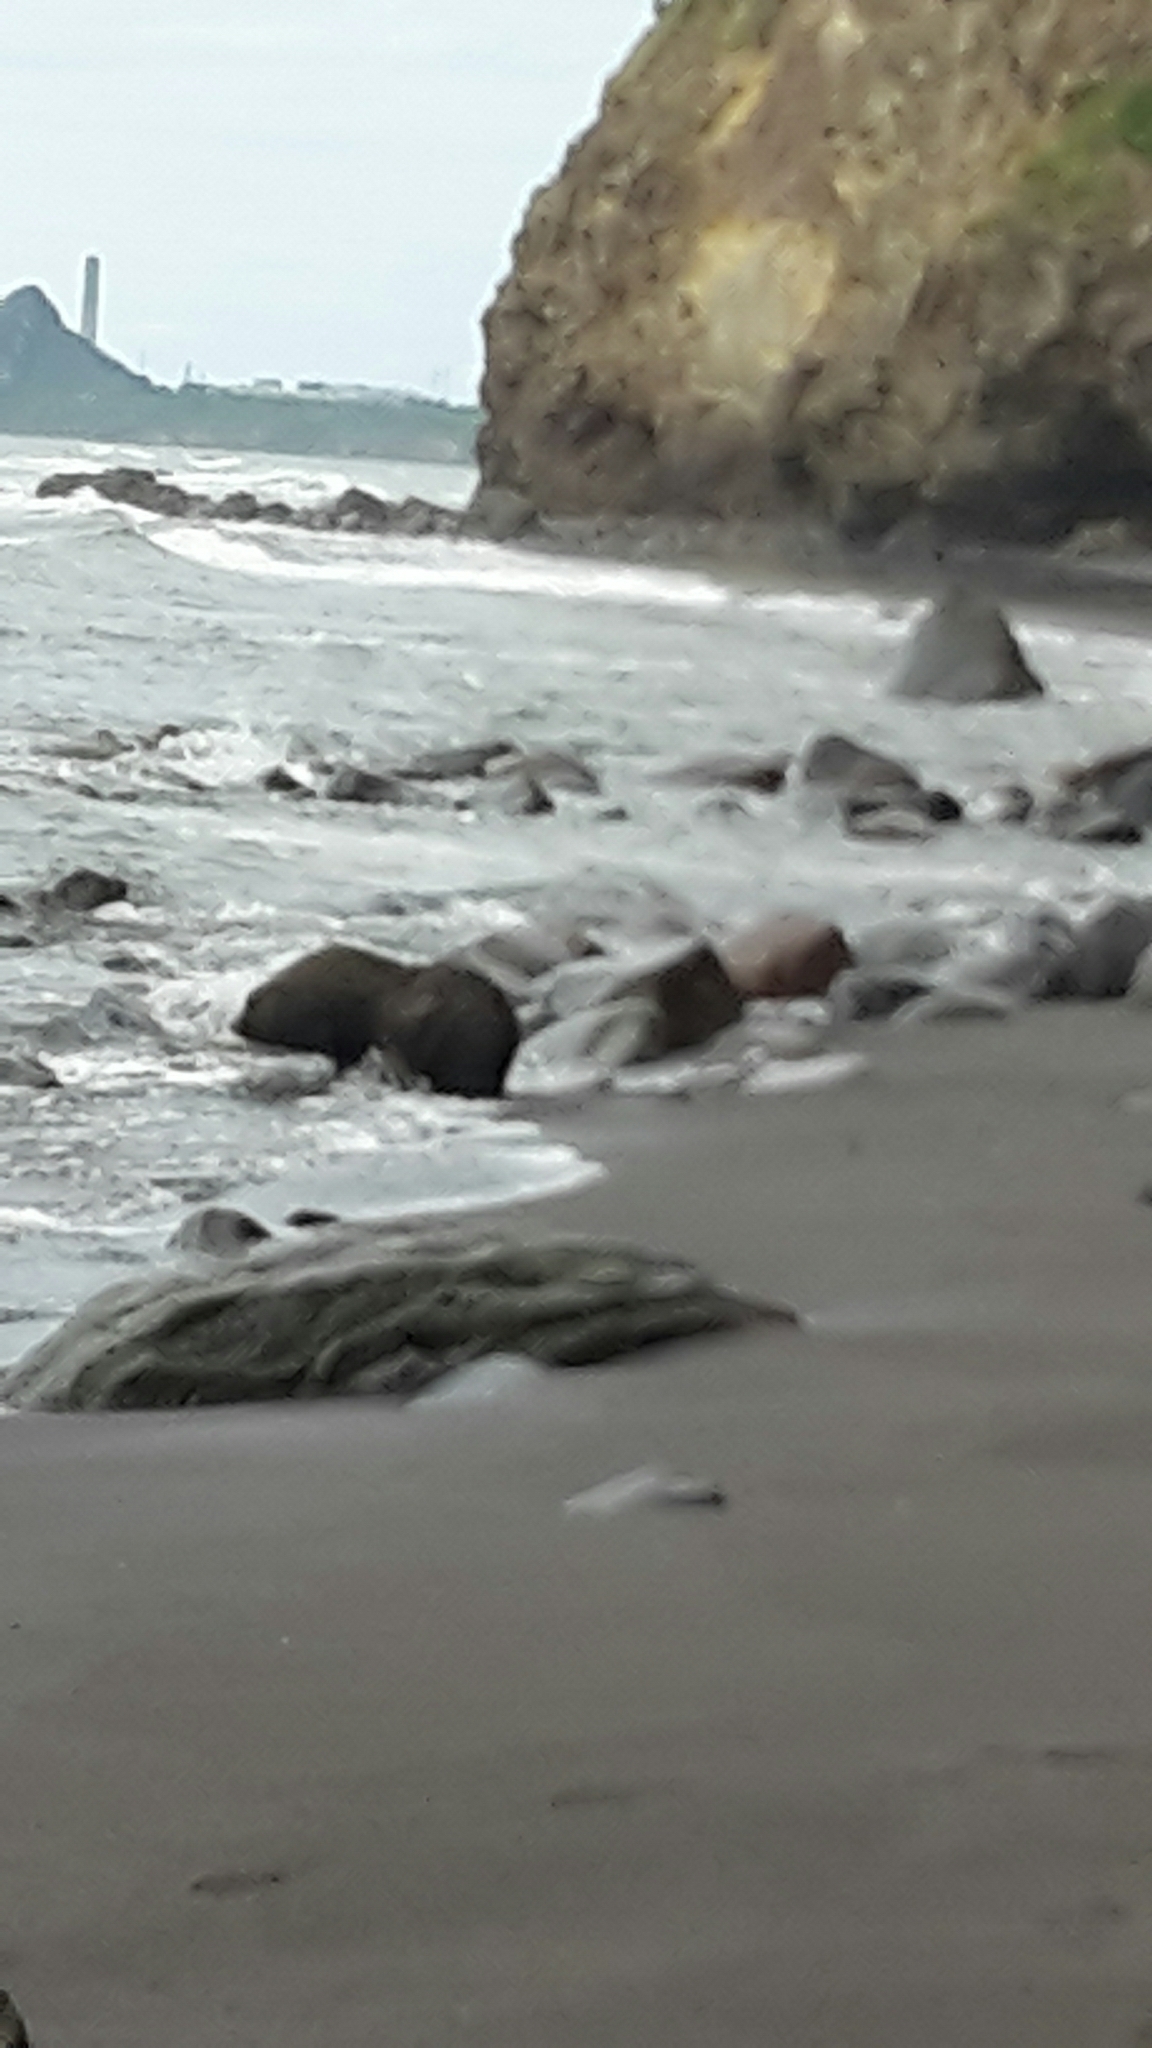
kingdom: Animalia
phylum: Chordata
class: Mammalia
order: Carnivora
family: Otariidae
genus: Arctocephalus
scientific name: Arctocephalus forsteri
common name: New zealand fur seal
